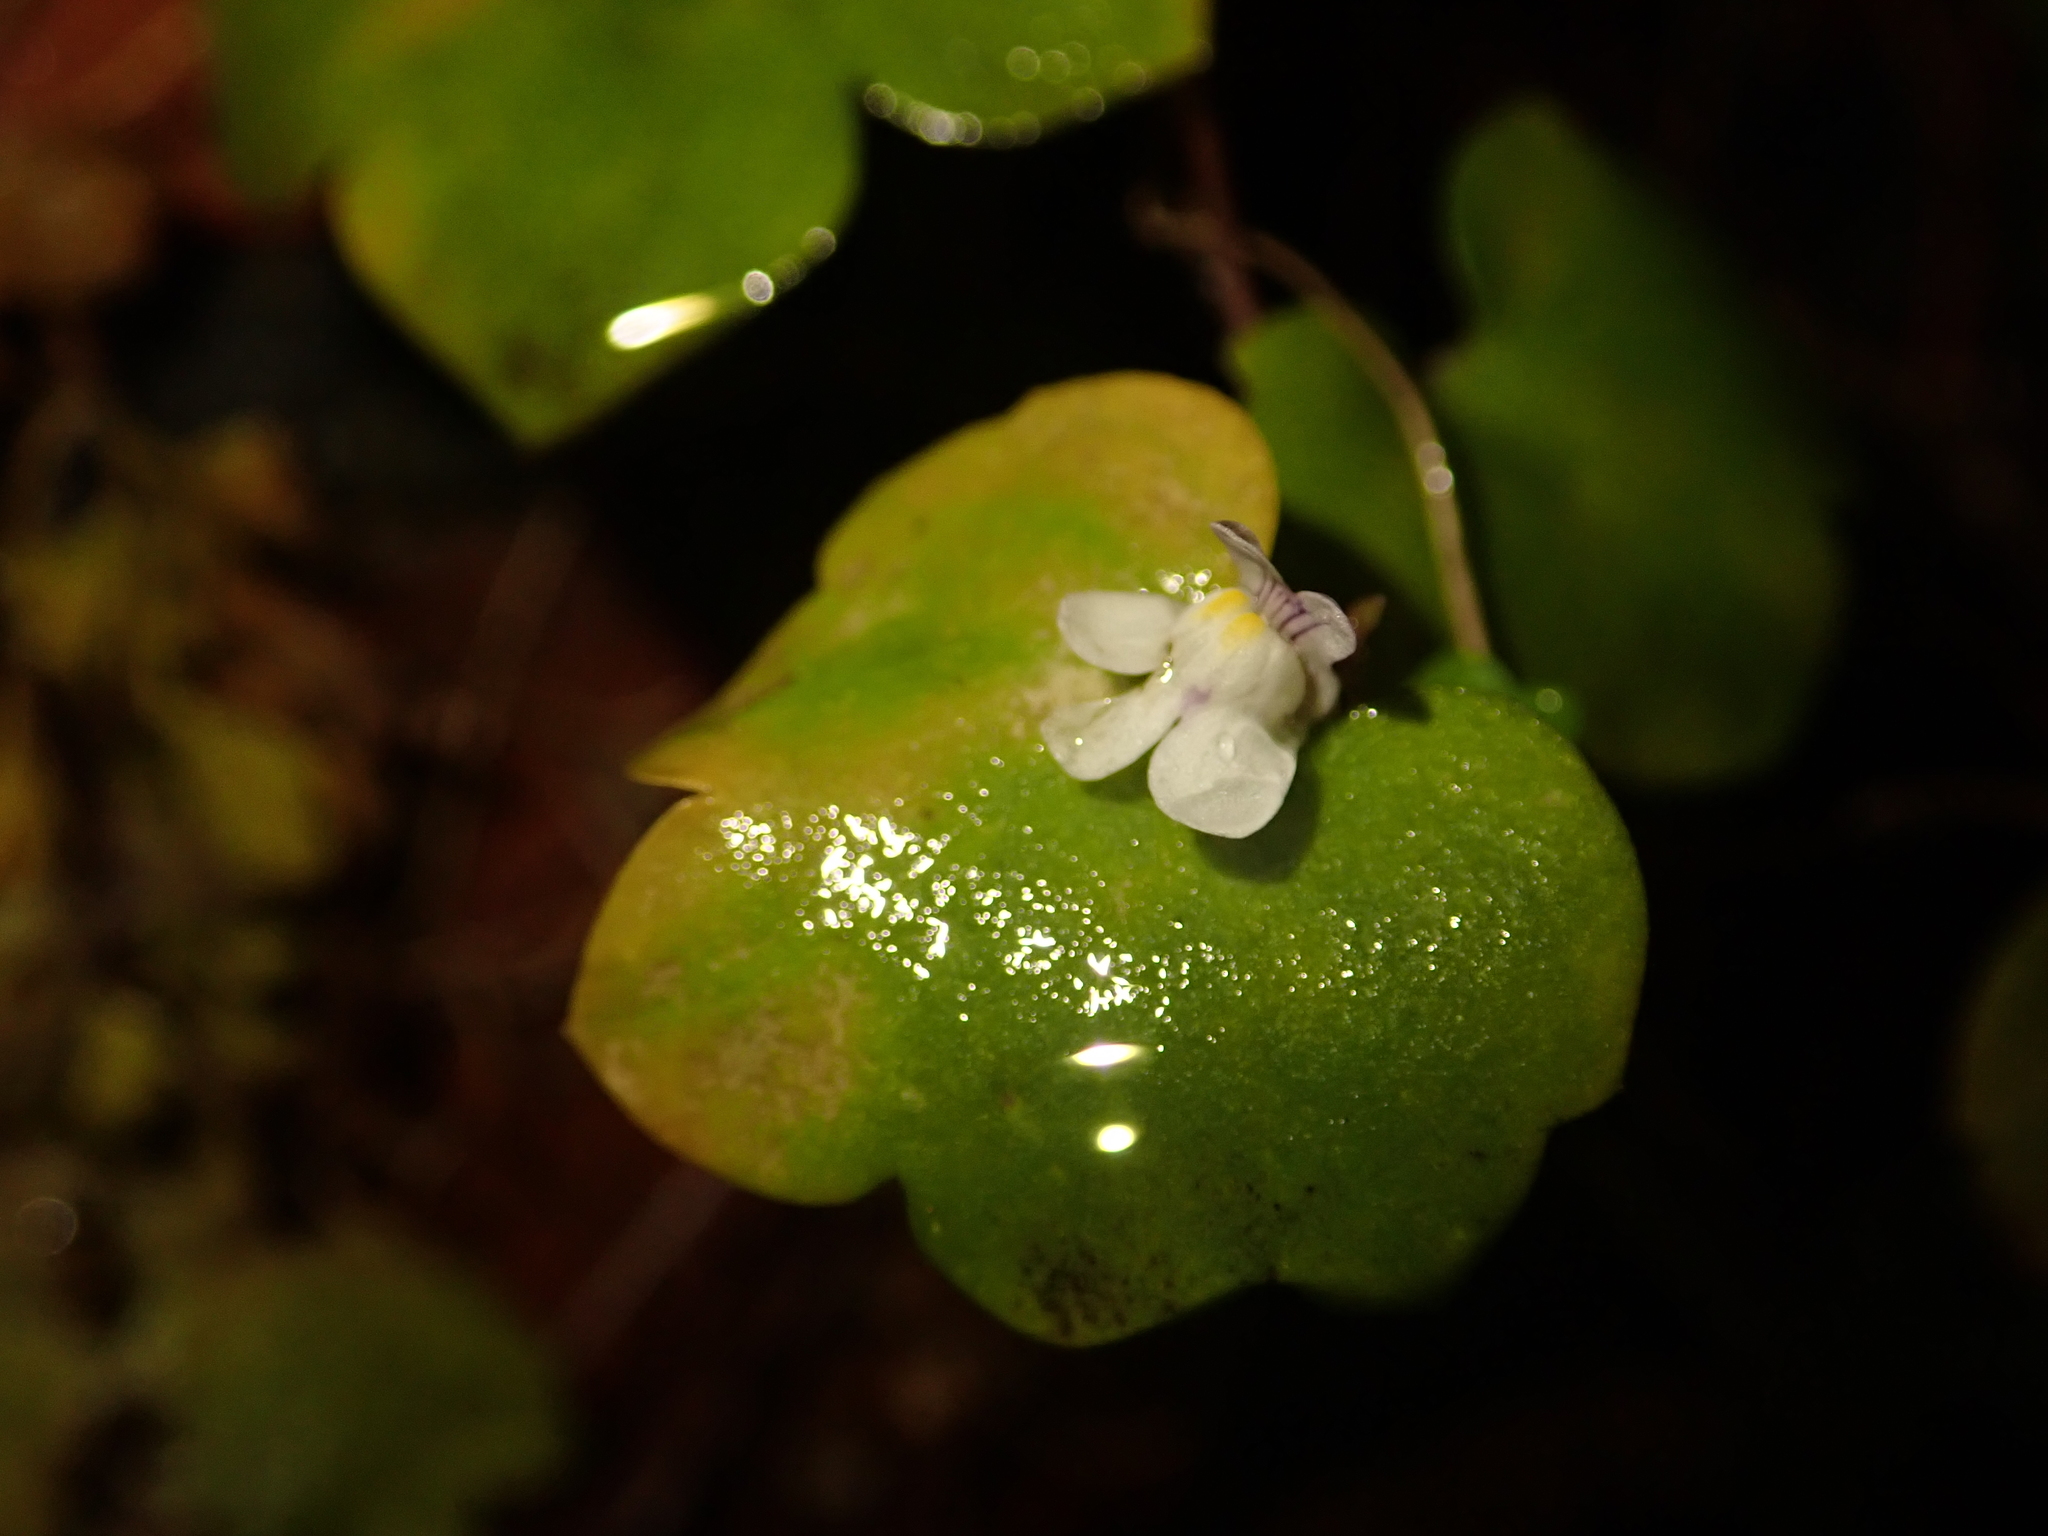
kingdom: Plantae
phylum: Tracheophyta
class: Magnoliopsida
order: Lamiales
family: Plantaginaceae
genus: Cymbalaria
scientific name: Cymbalaria muralis
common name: Ivy-leaved toadflax
